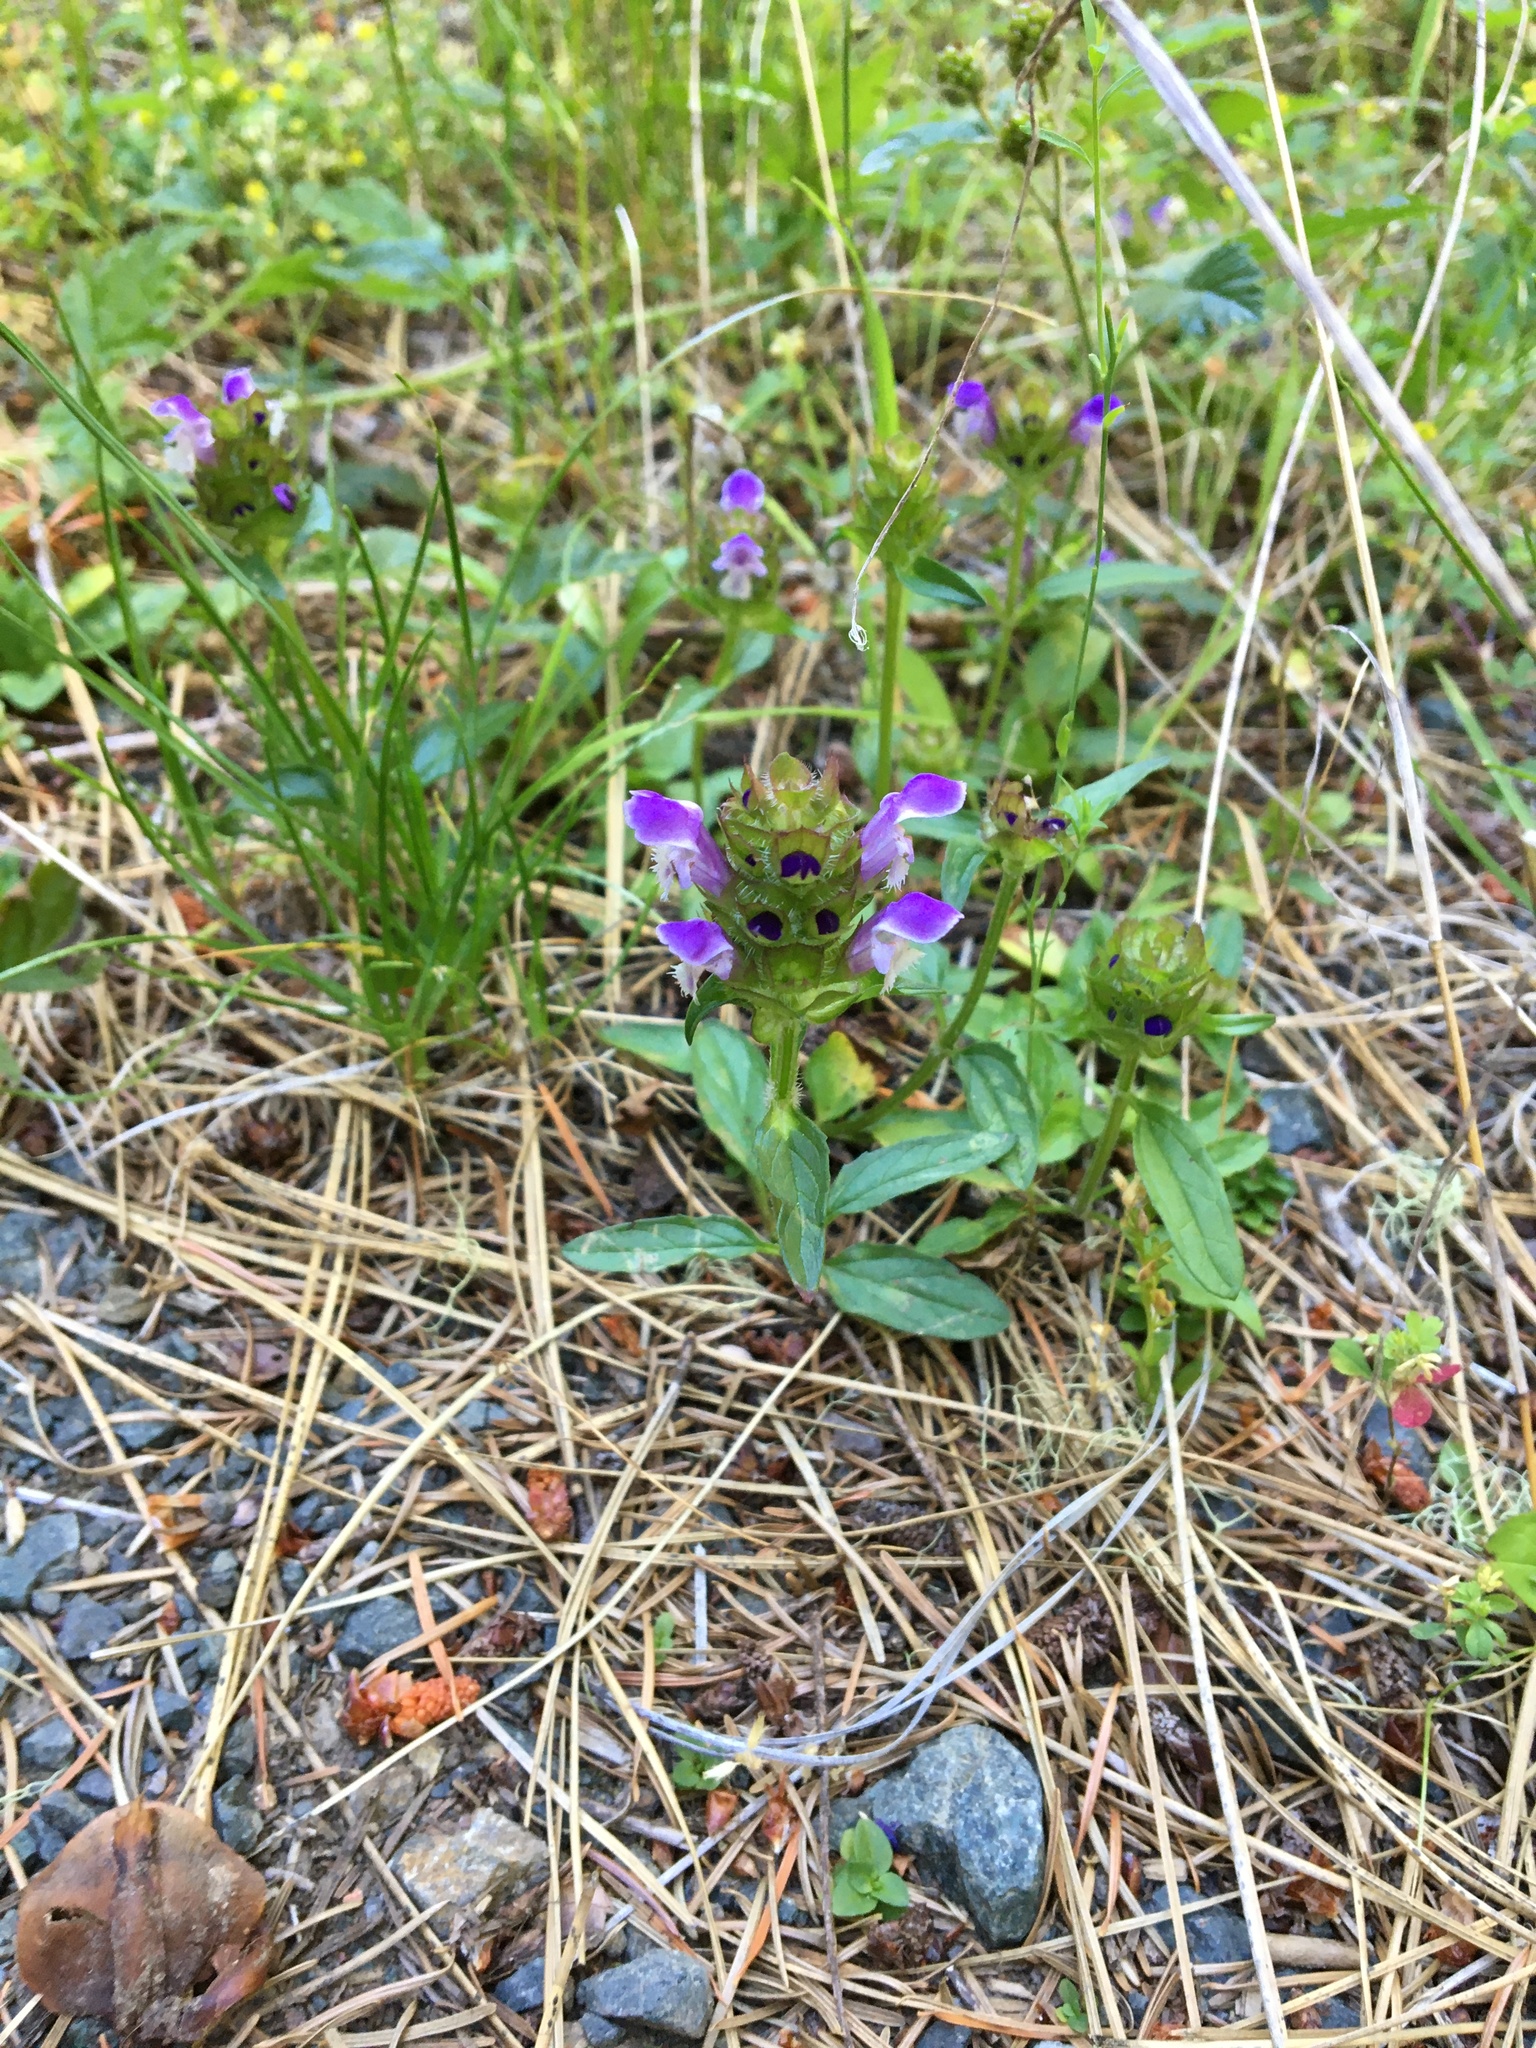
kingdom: Plantae
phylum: Tracheophyta
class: Magnoliopsida
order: Lamiales
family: Lamiaceae
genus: Prunella
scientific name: Prunella vulgaris
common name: Heal-all
